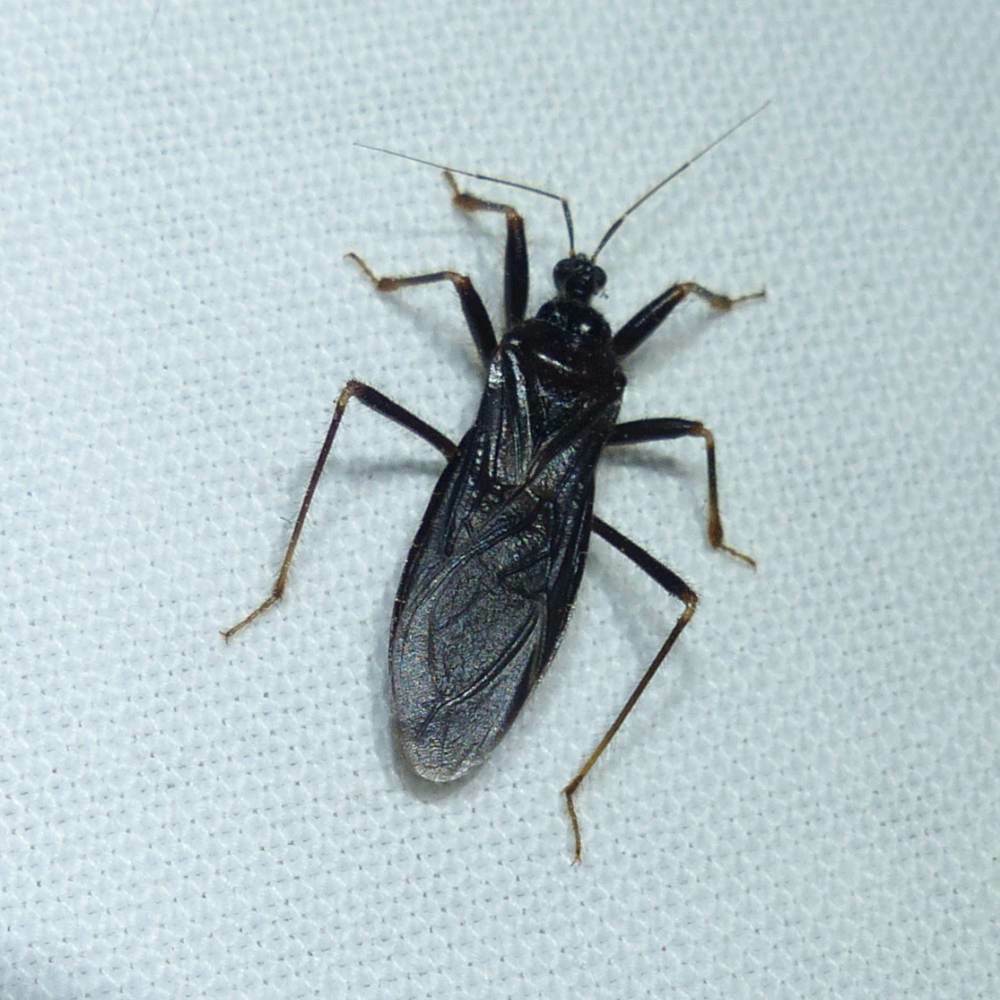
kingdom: Animalia
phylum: Arthropoda
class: Insecta
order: Hemiptera
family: Reduviidae
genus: Reduvius
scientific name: Reduvius personatus
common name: Masked hunter
